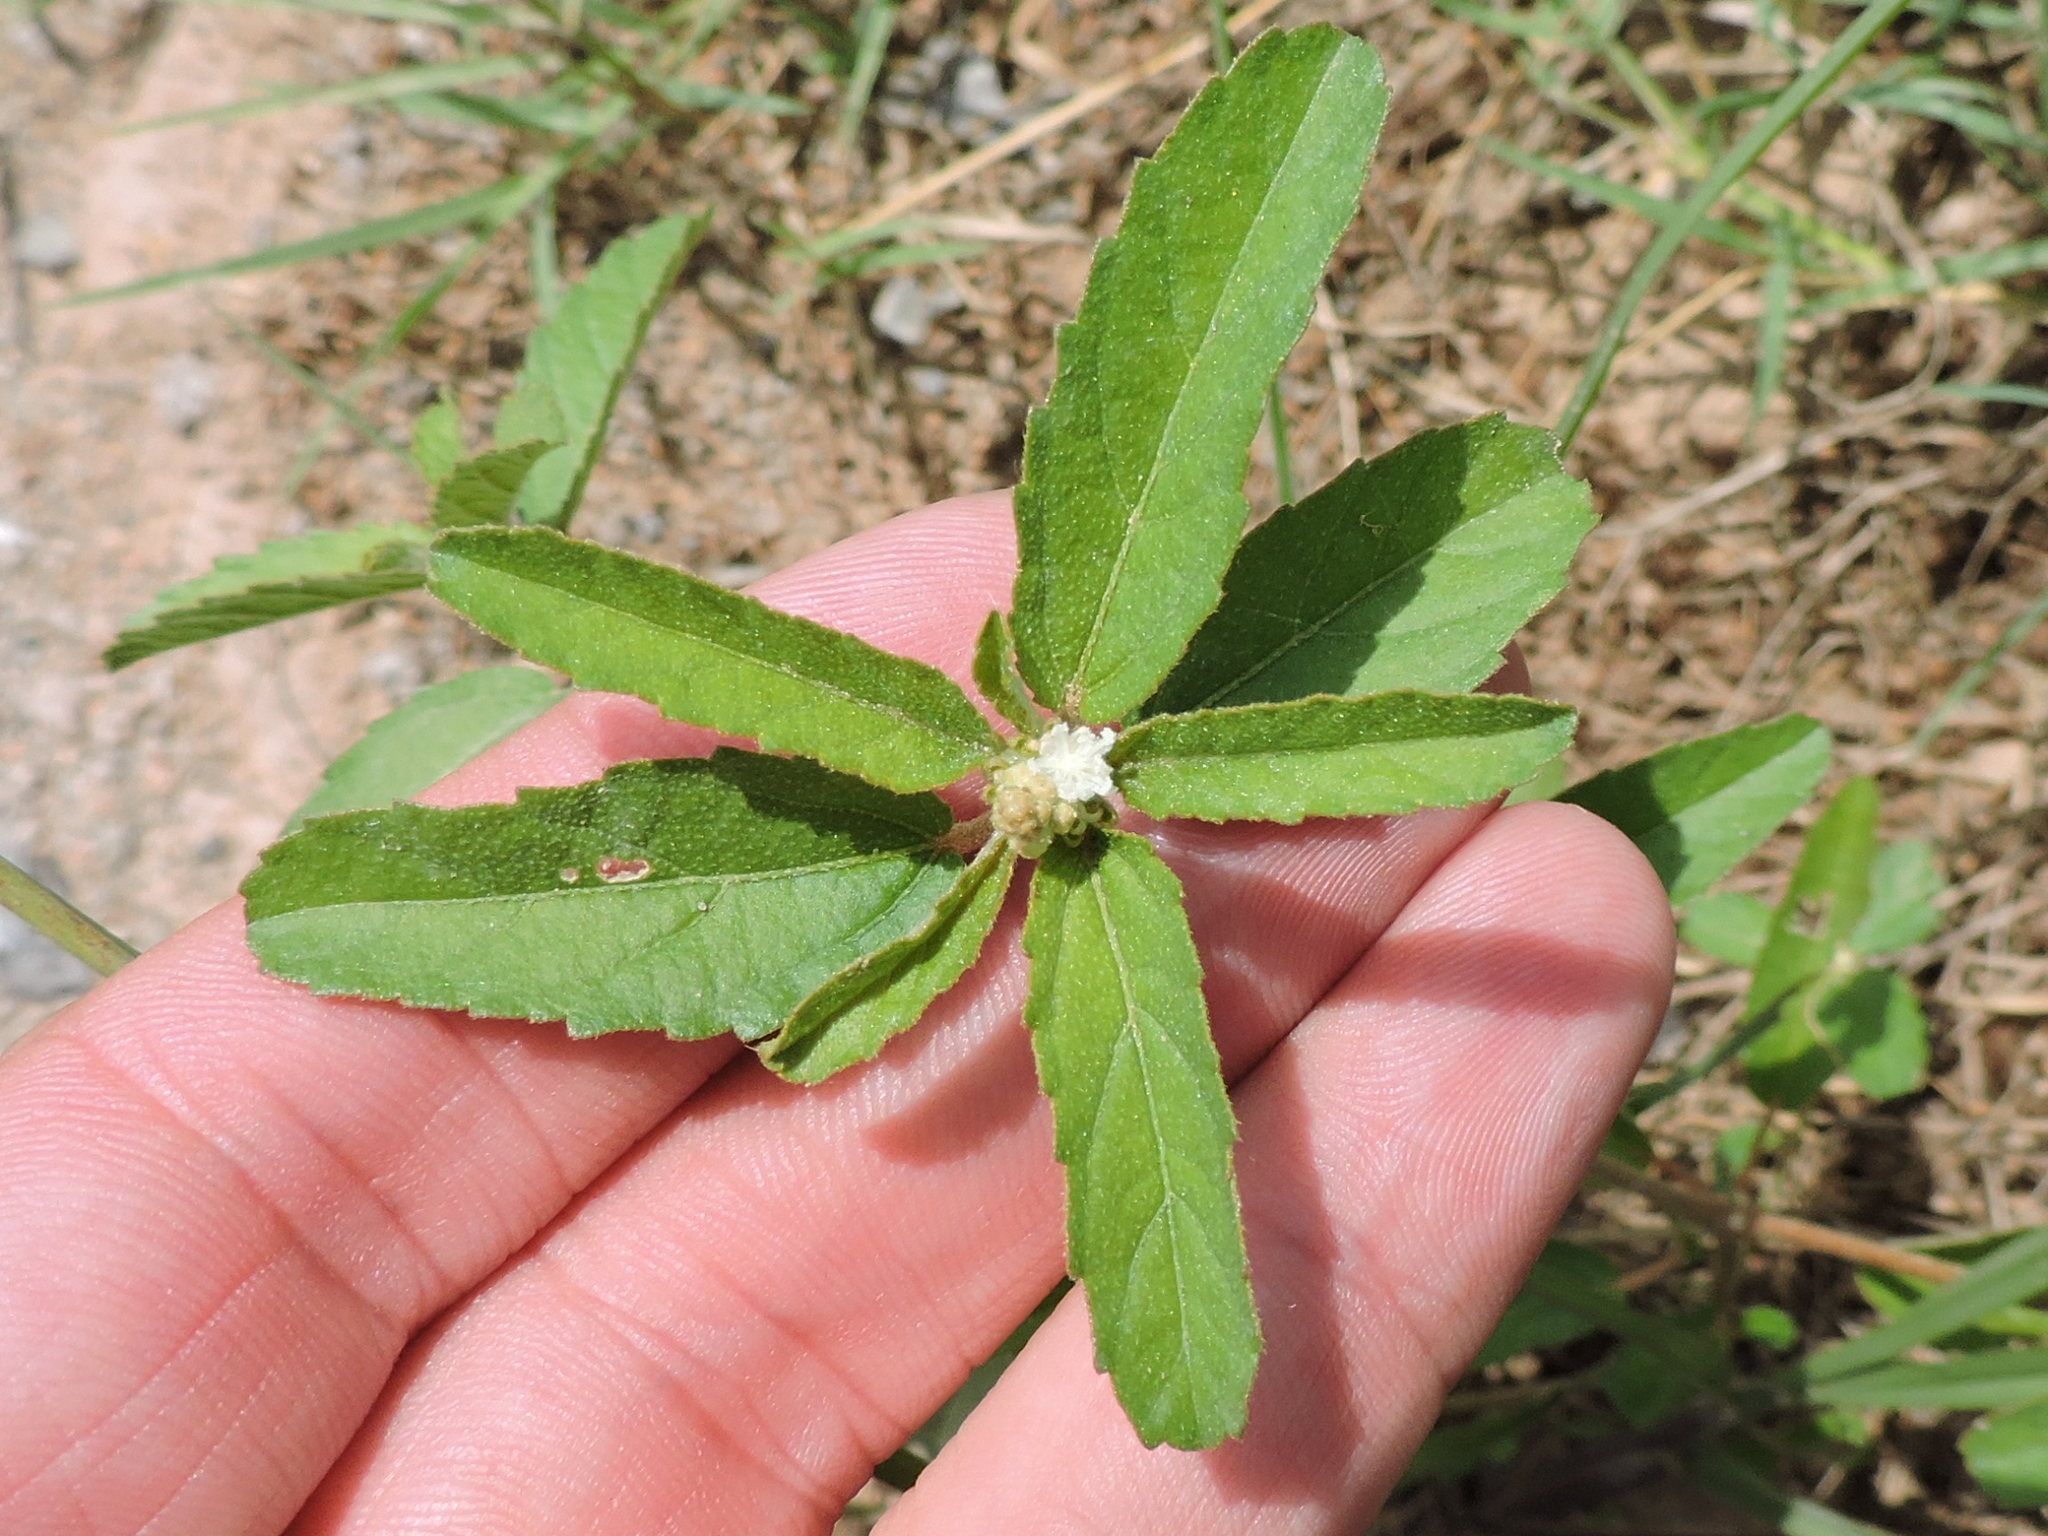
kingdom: Plantae
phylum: Tracheophyta
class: Magnoliopsida
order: Malpighiales
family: Euphorbiaceae
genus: Croton
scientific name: Croton glandulosus
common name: Tropic croton
